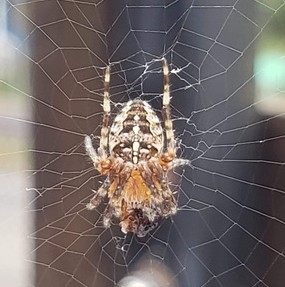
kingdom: Animalia
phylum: Arthropoda
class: Arachnida
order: Araneae
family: Araneidae
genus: Araneus
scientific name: Araneus diadematus
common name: Cross orbweaver
